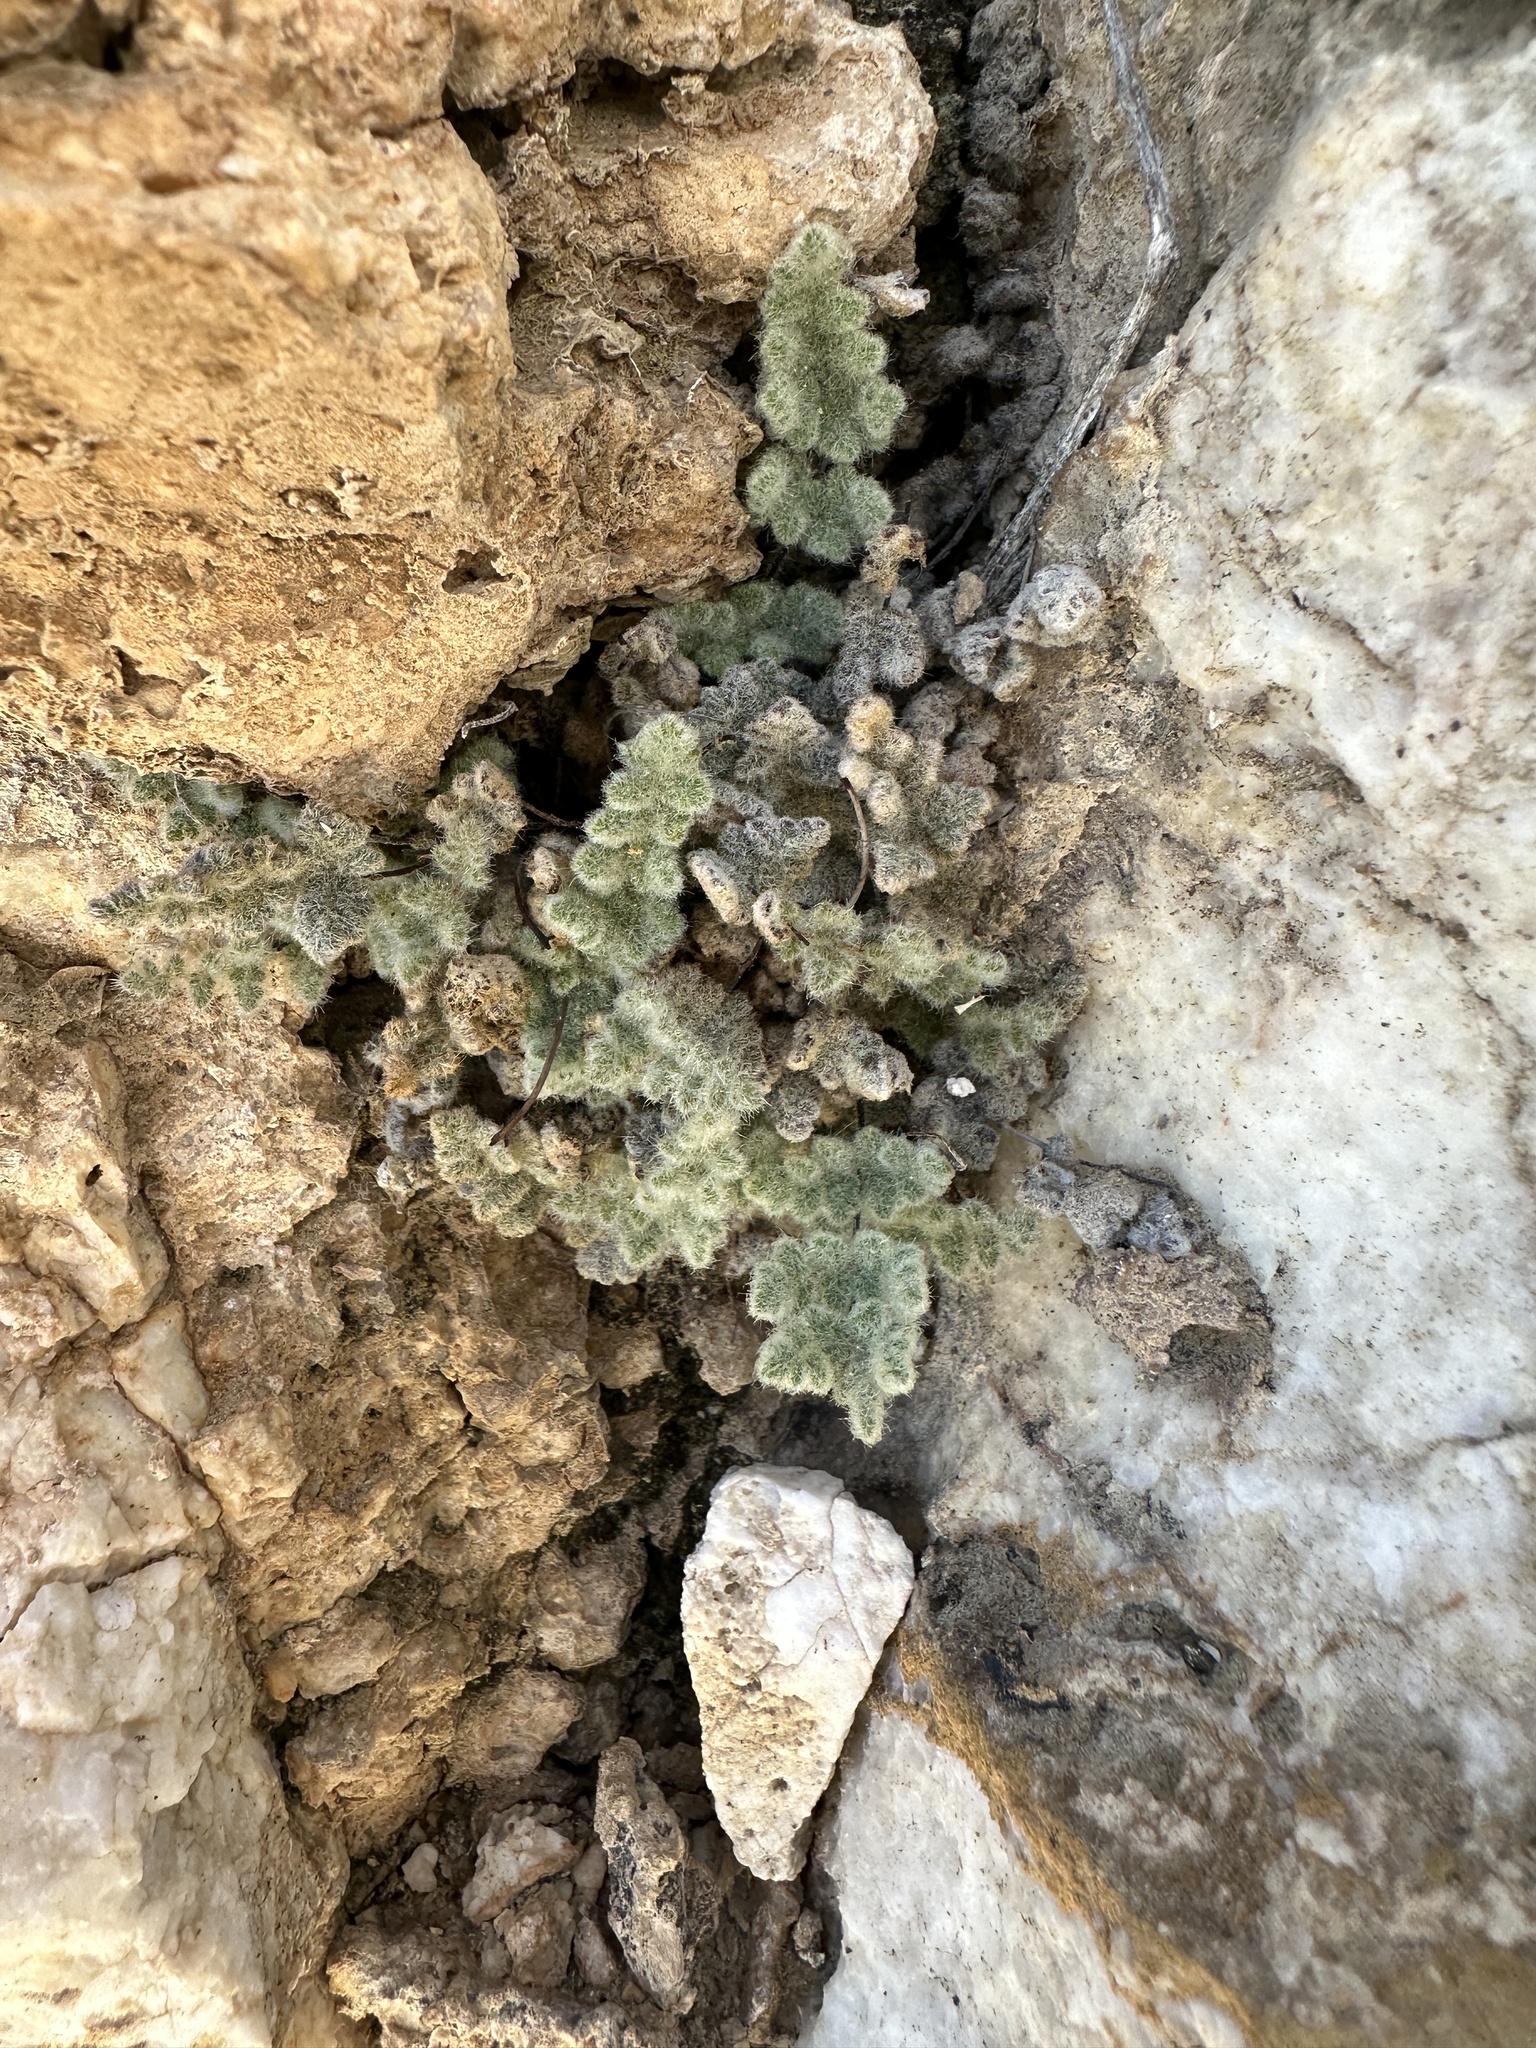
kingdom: Plantae
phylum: Tracheophyta
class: Polypodiopsida
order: Polypodiales
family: Pteridaceae
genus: Myriopteris
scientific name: Myriopteris parryi
